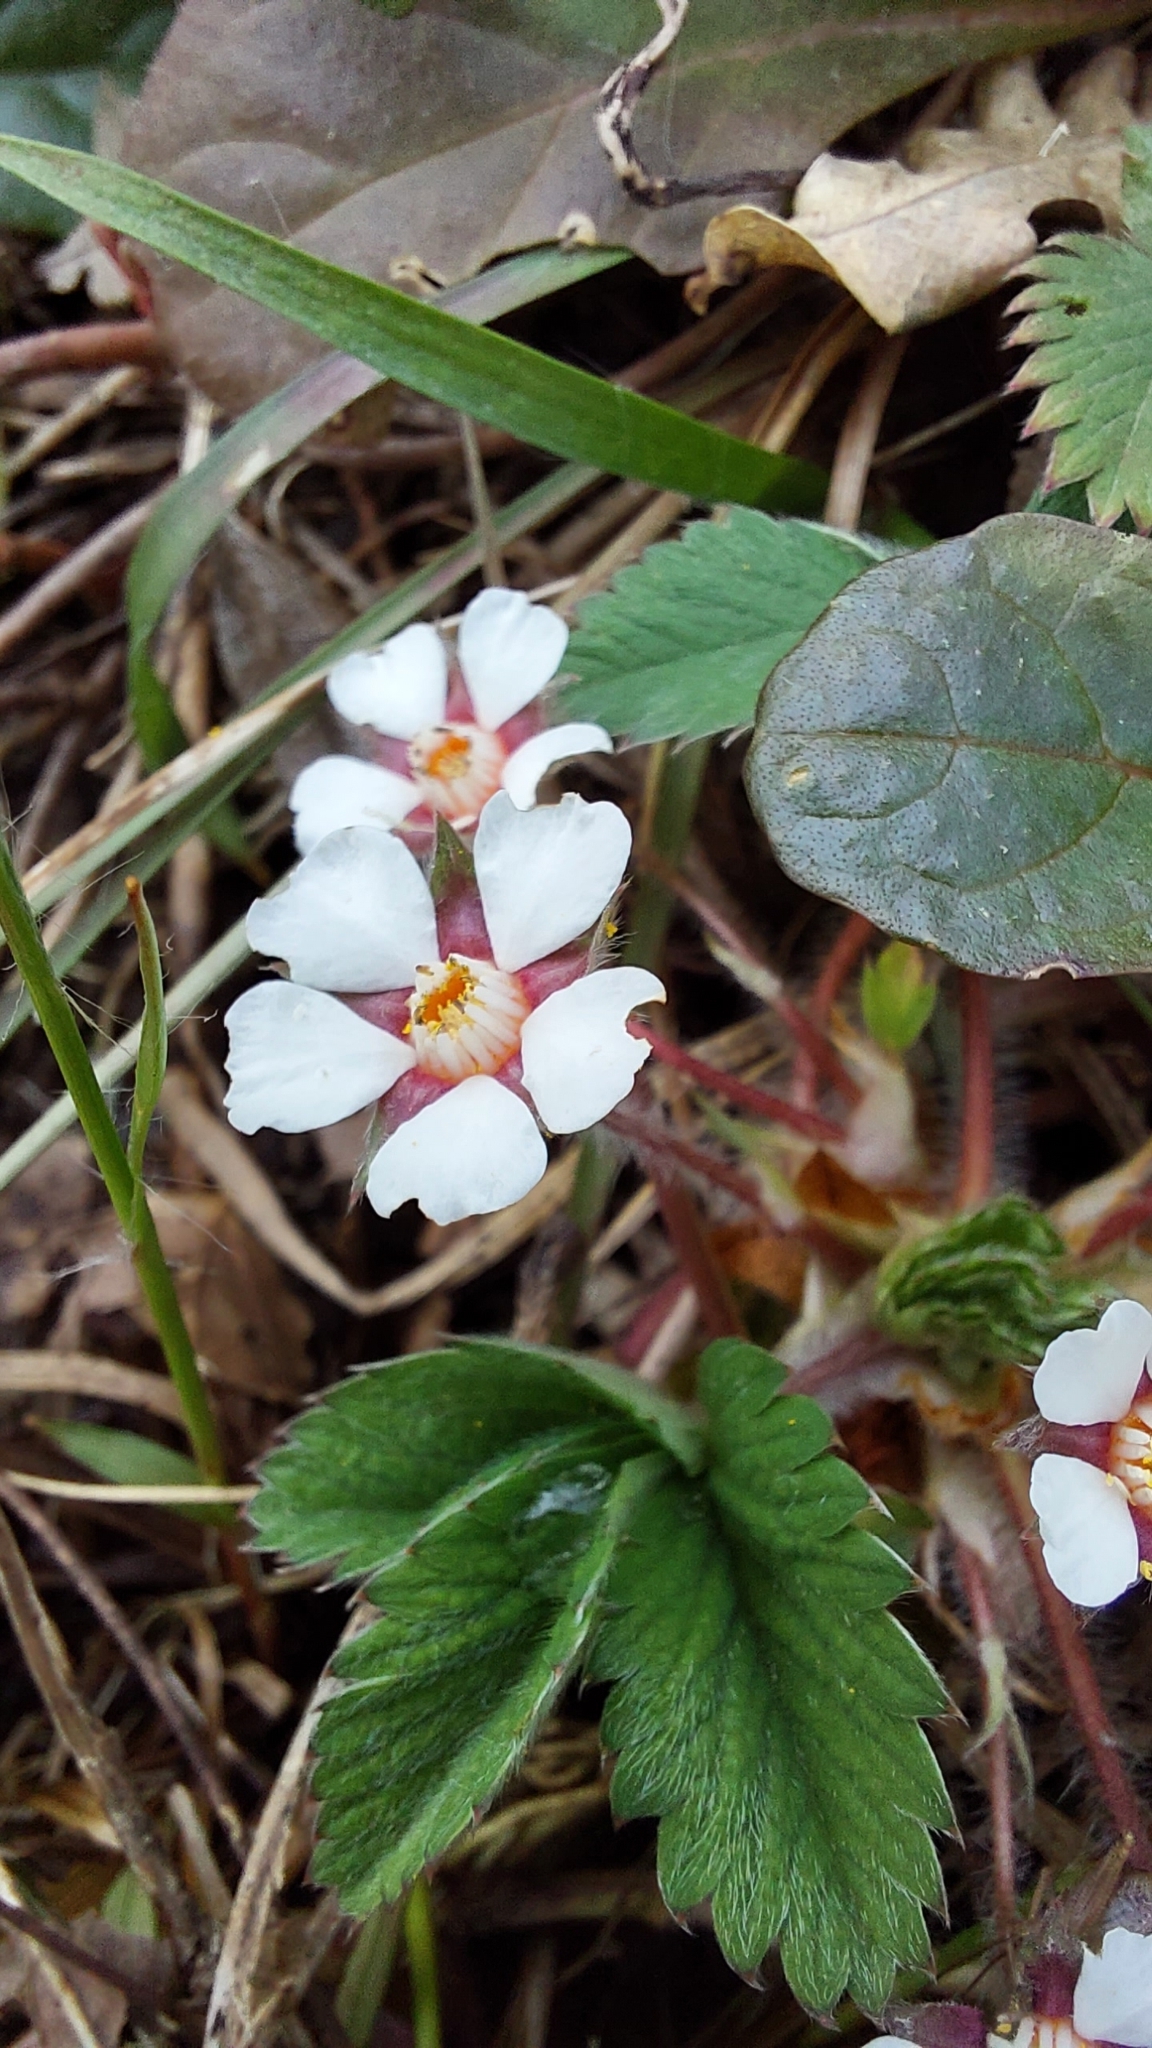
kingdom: Plantae
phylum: Tracheophyta
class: Magnoliopsida
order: Rosales
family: Rosaceae
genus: Potentilla
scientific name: Potentilla micrantha
